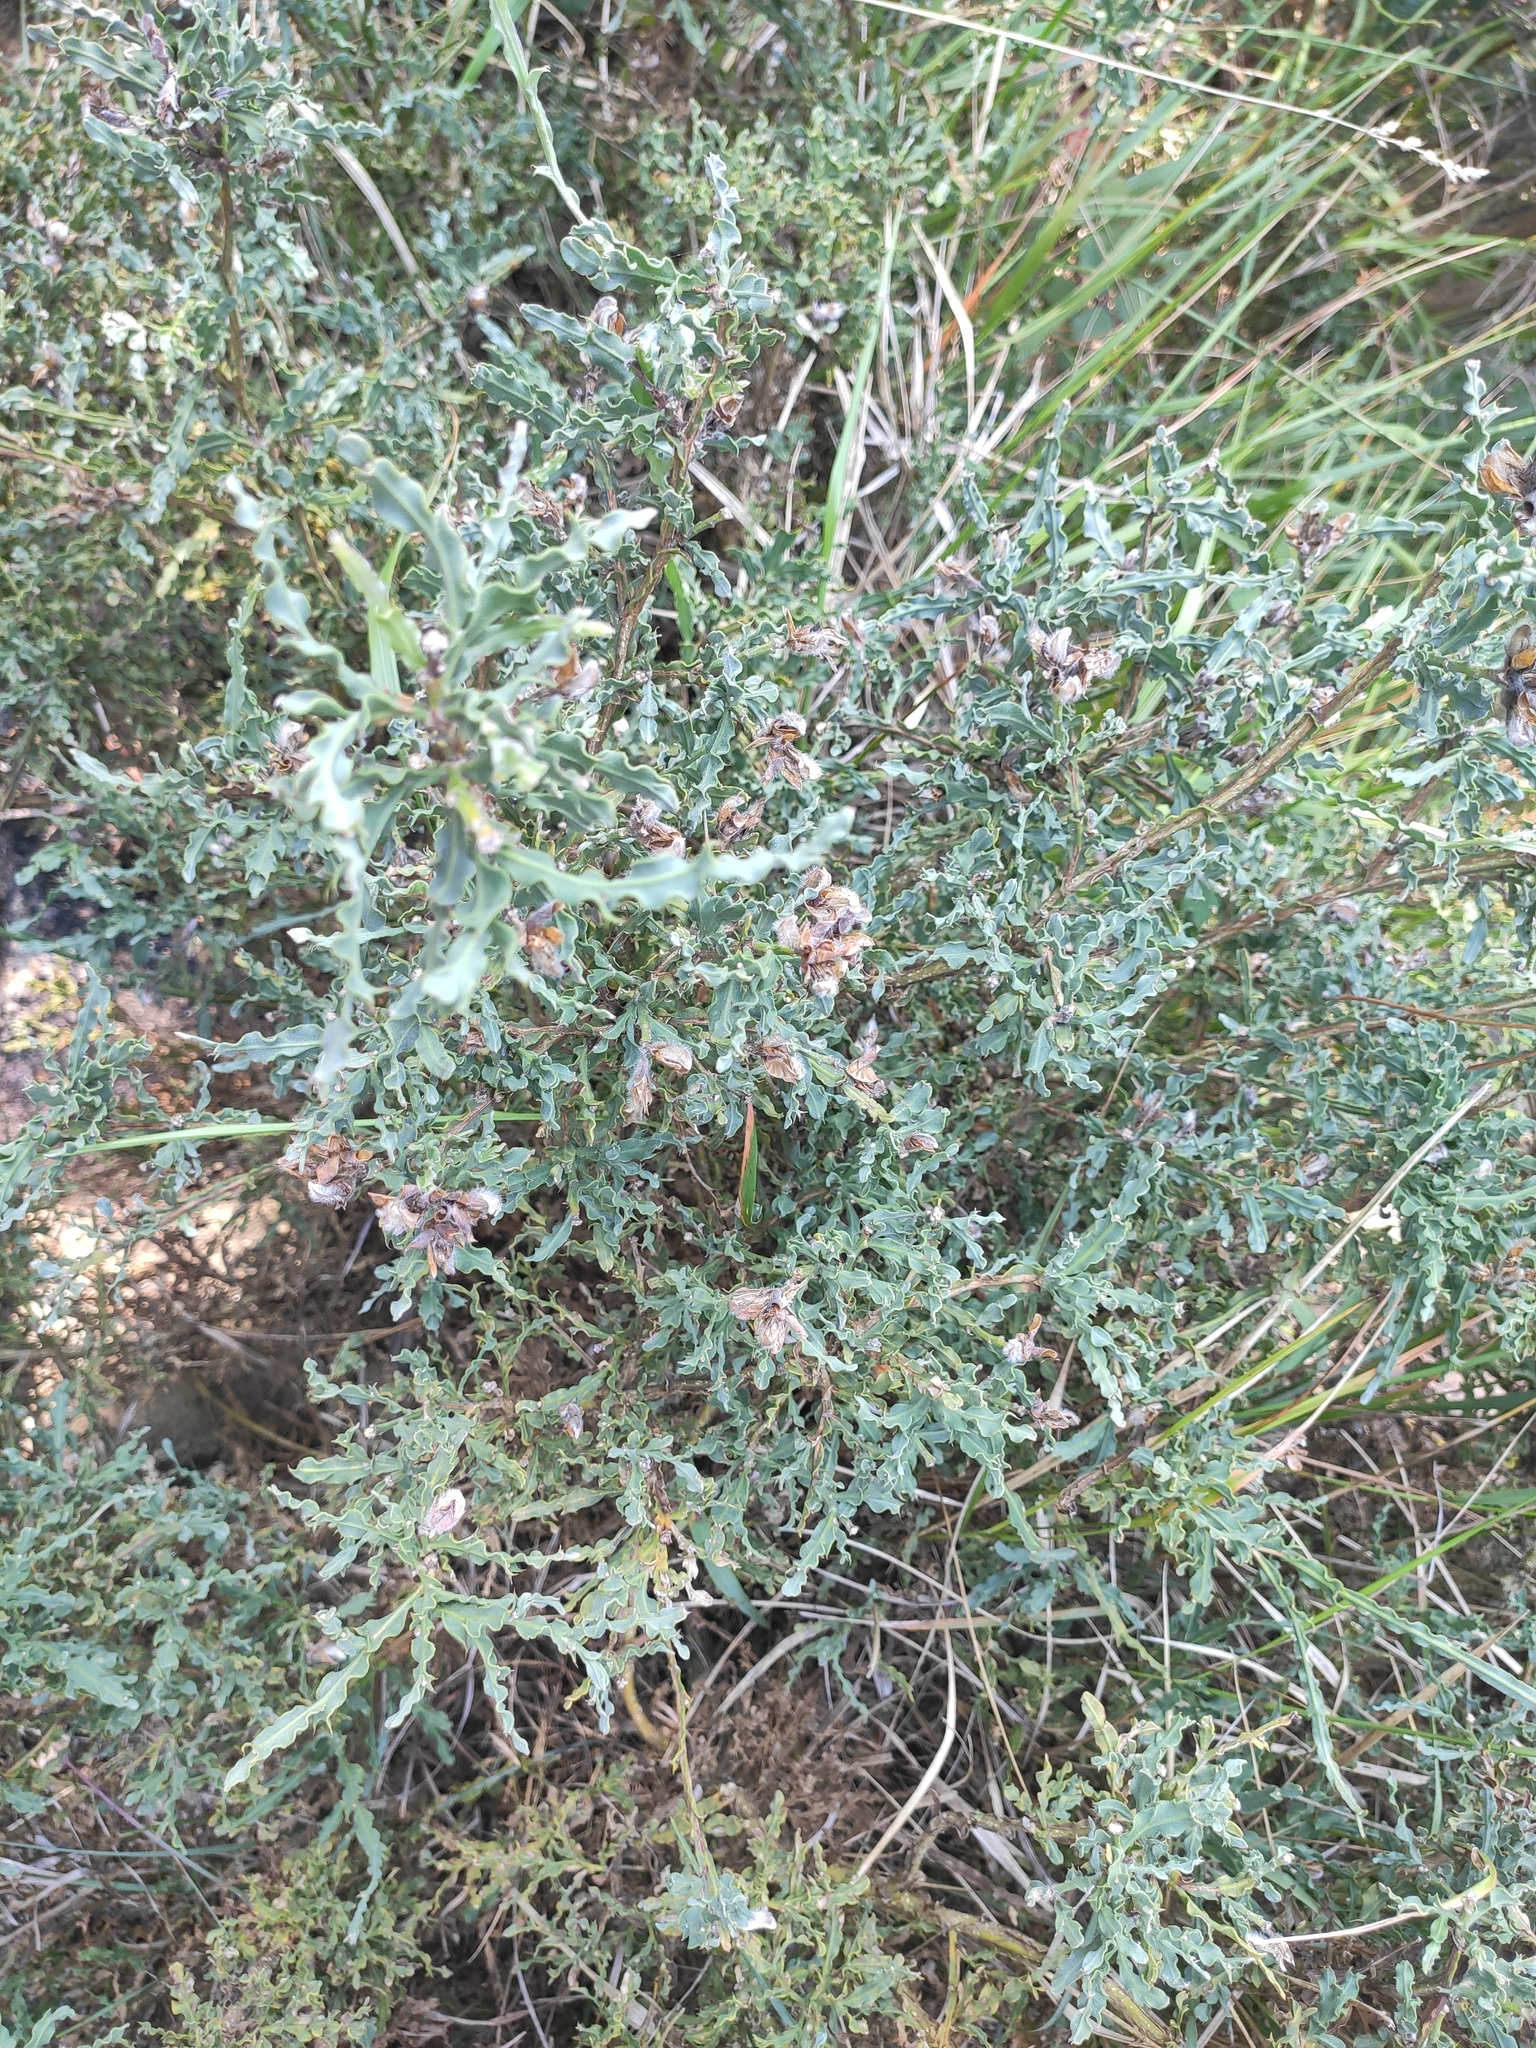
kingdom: Plantae
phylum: Tracheophyta
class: Magnoliopsida
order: Fabales
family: Fabaceae
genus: Genista
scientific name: Genista tridentata
